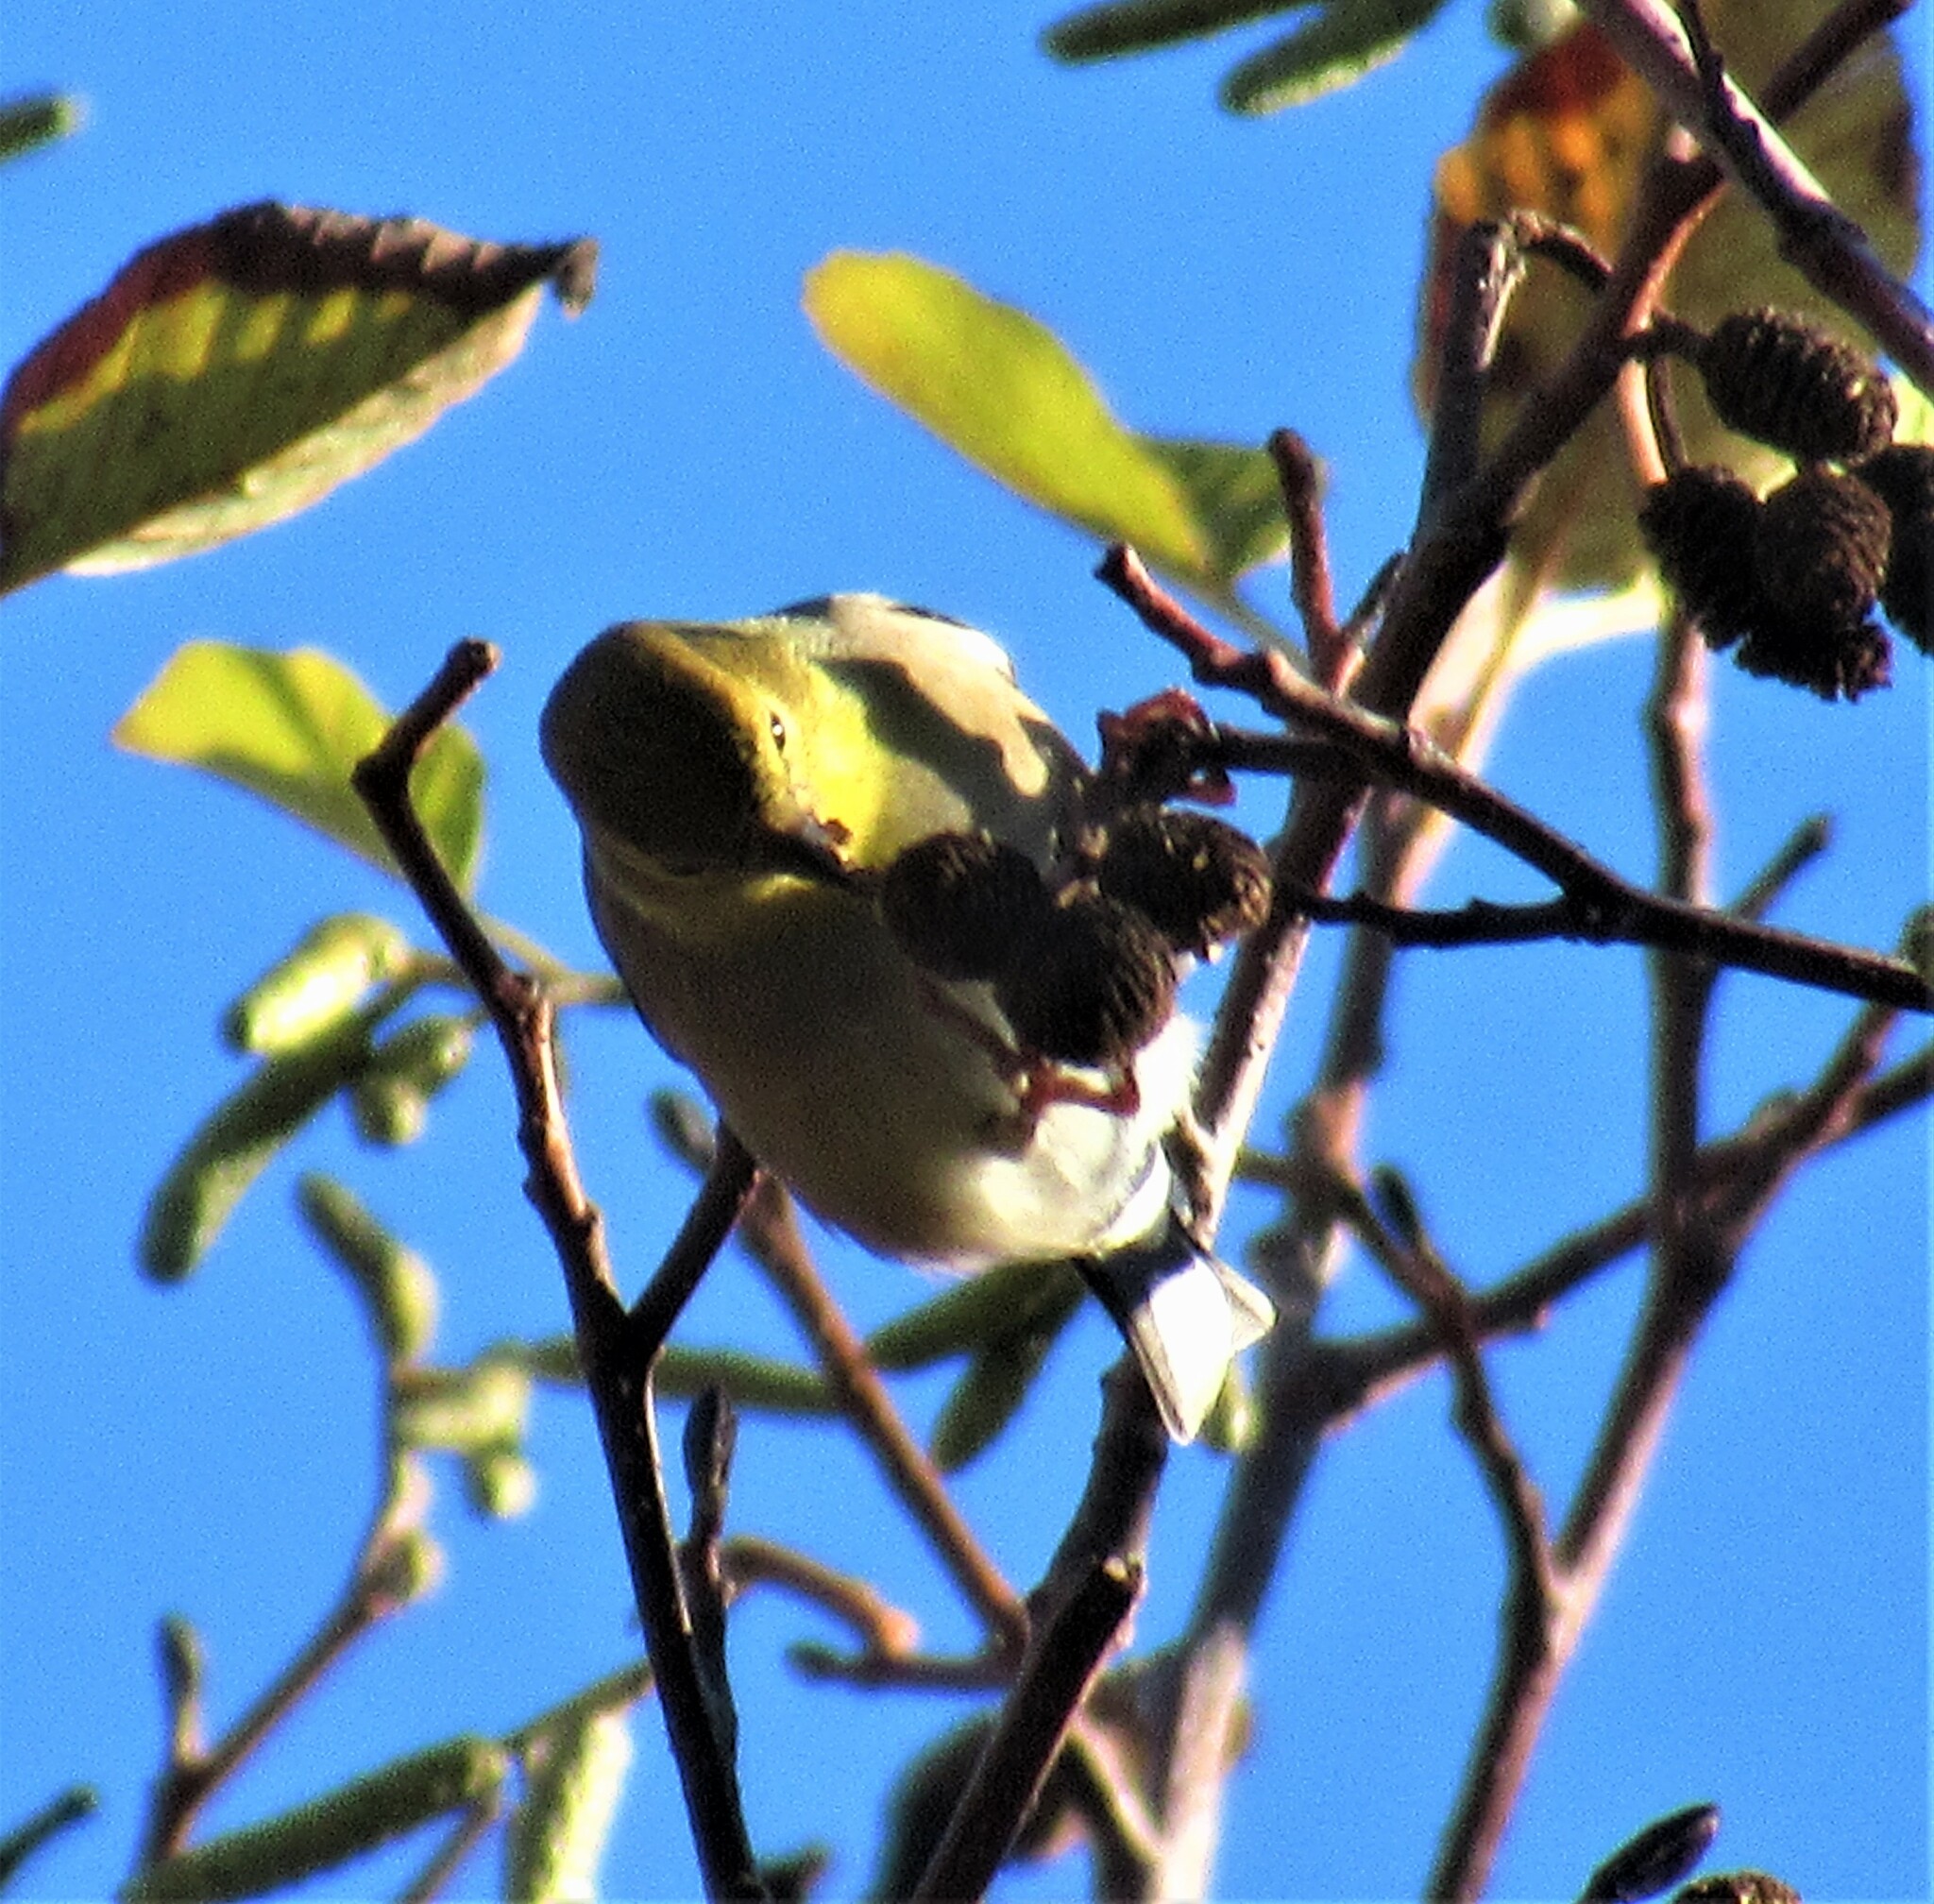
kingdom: Animalia
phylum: Chordata
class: Aves
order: Passeriformes
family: Fringillidae
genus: Spinus
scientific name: Spinus tristis
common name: American goldfinch
